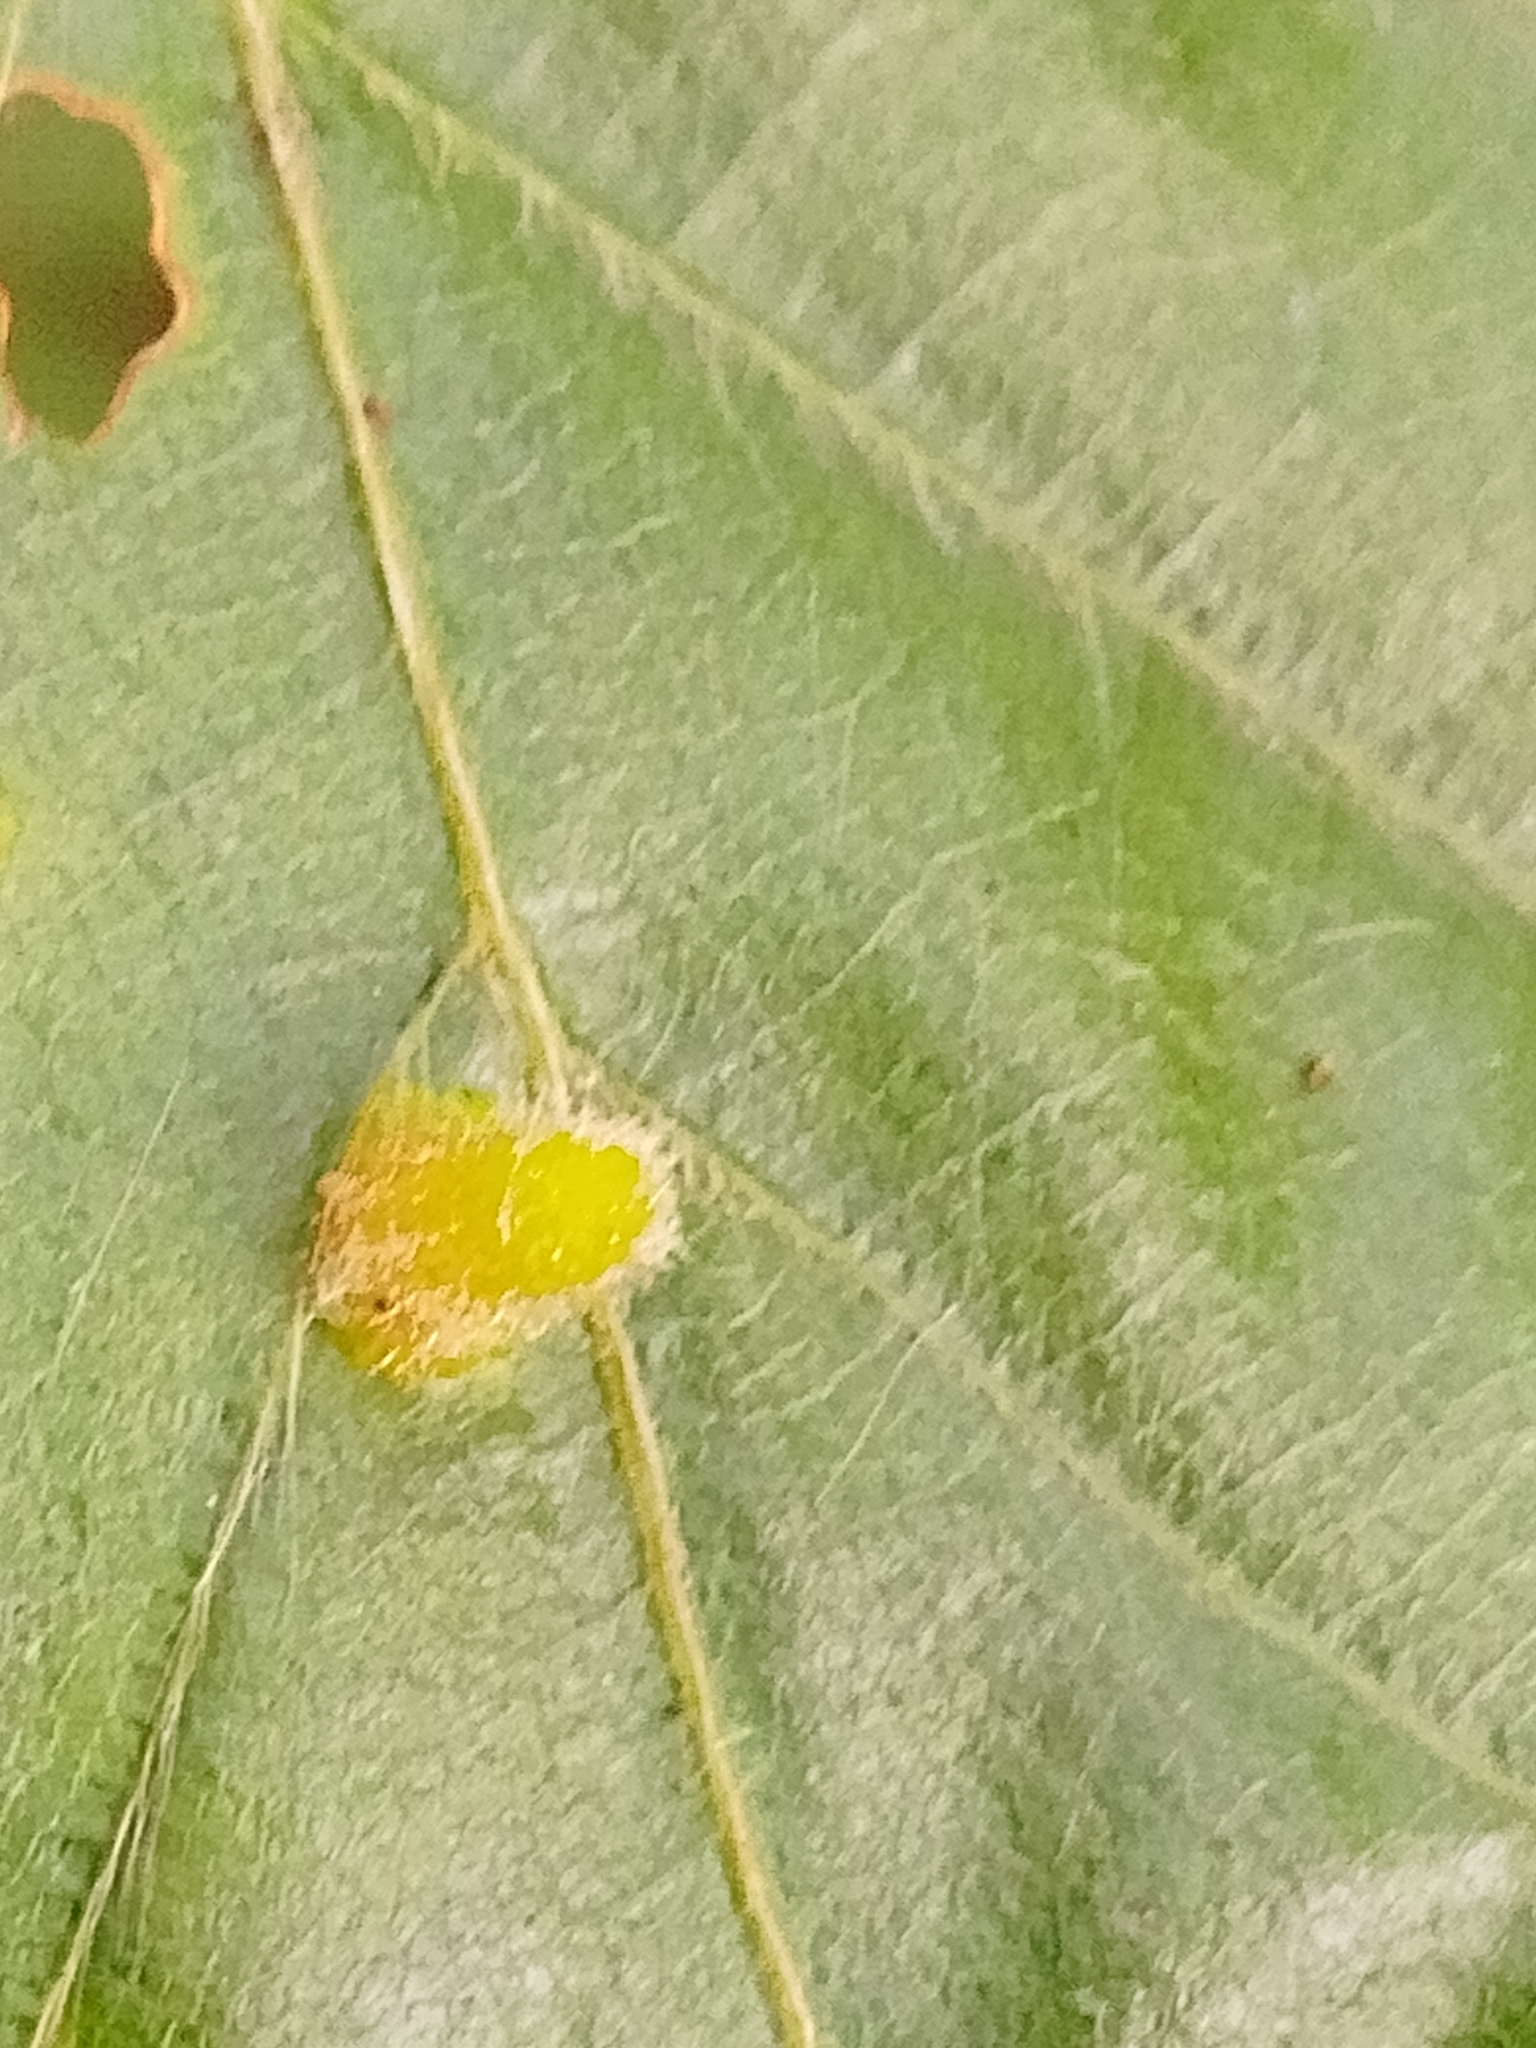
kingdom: Animalia
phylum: Arthropoda
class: Insecta
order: Diptera
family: Cecidomyiidae
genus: Hartigiola
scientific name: Hartigiola annulipes
